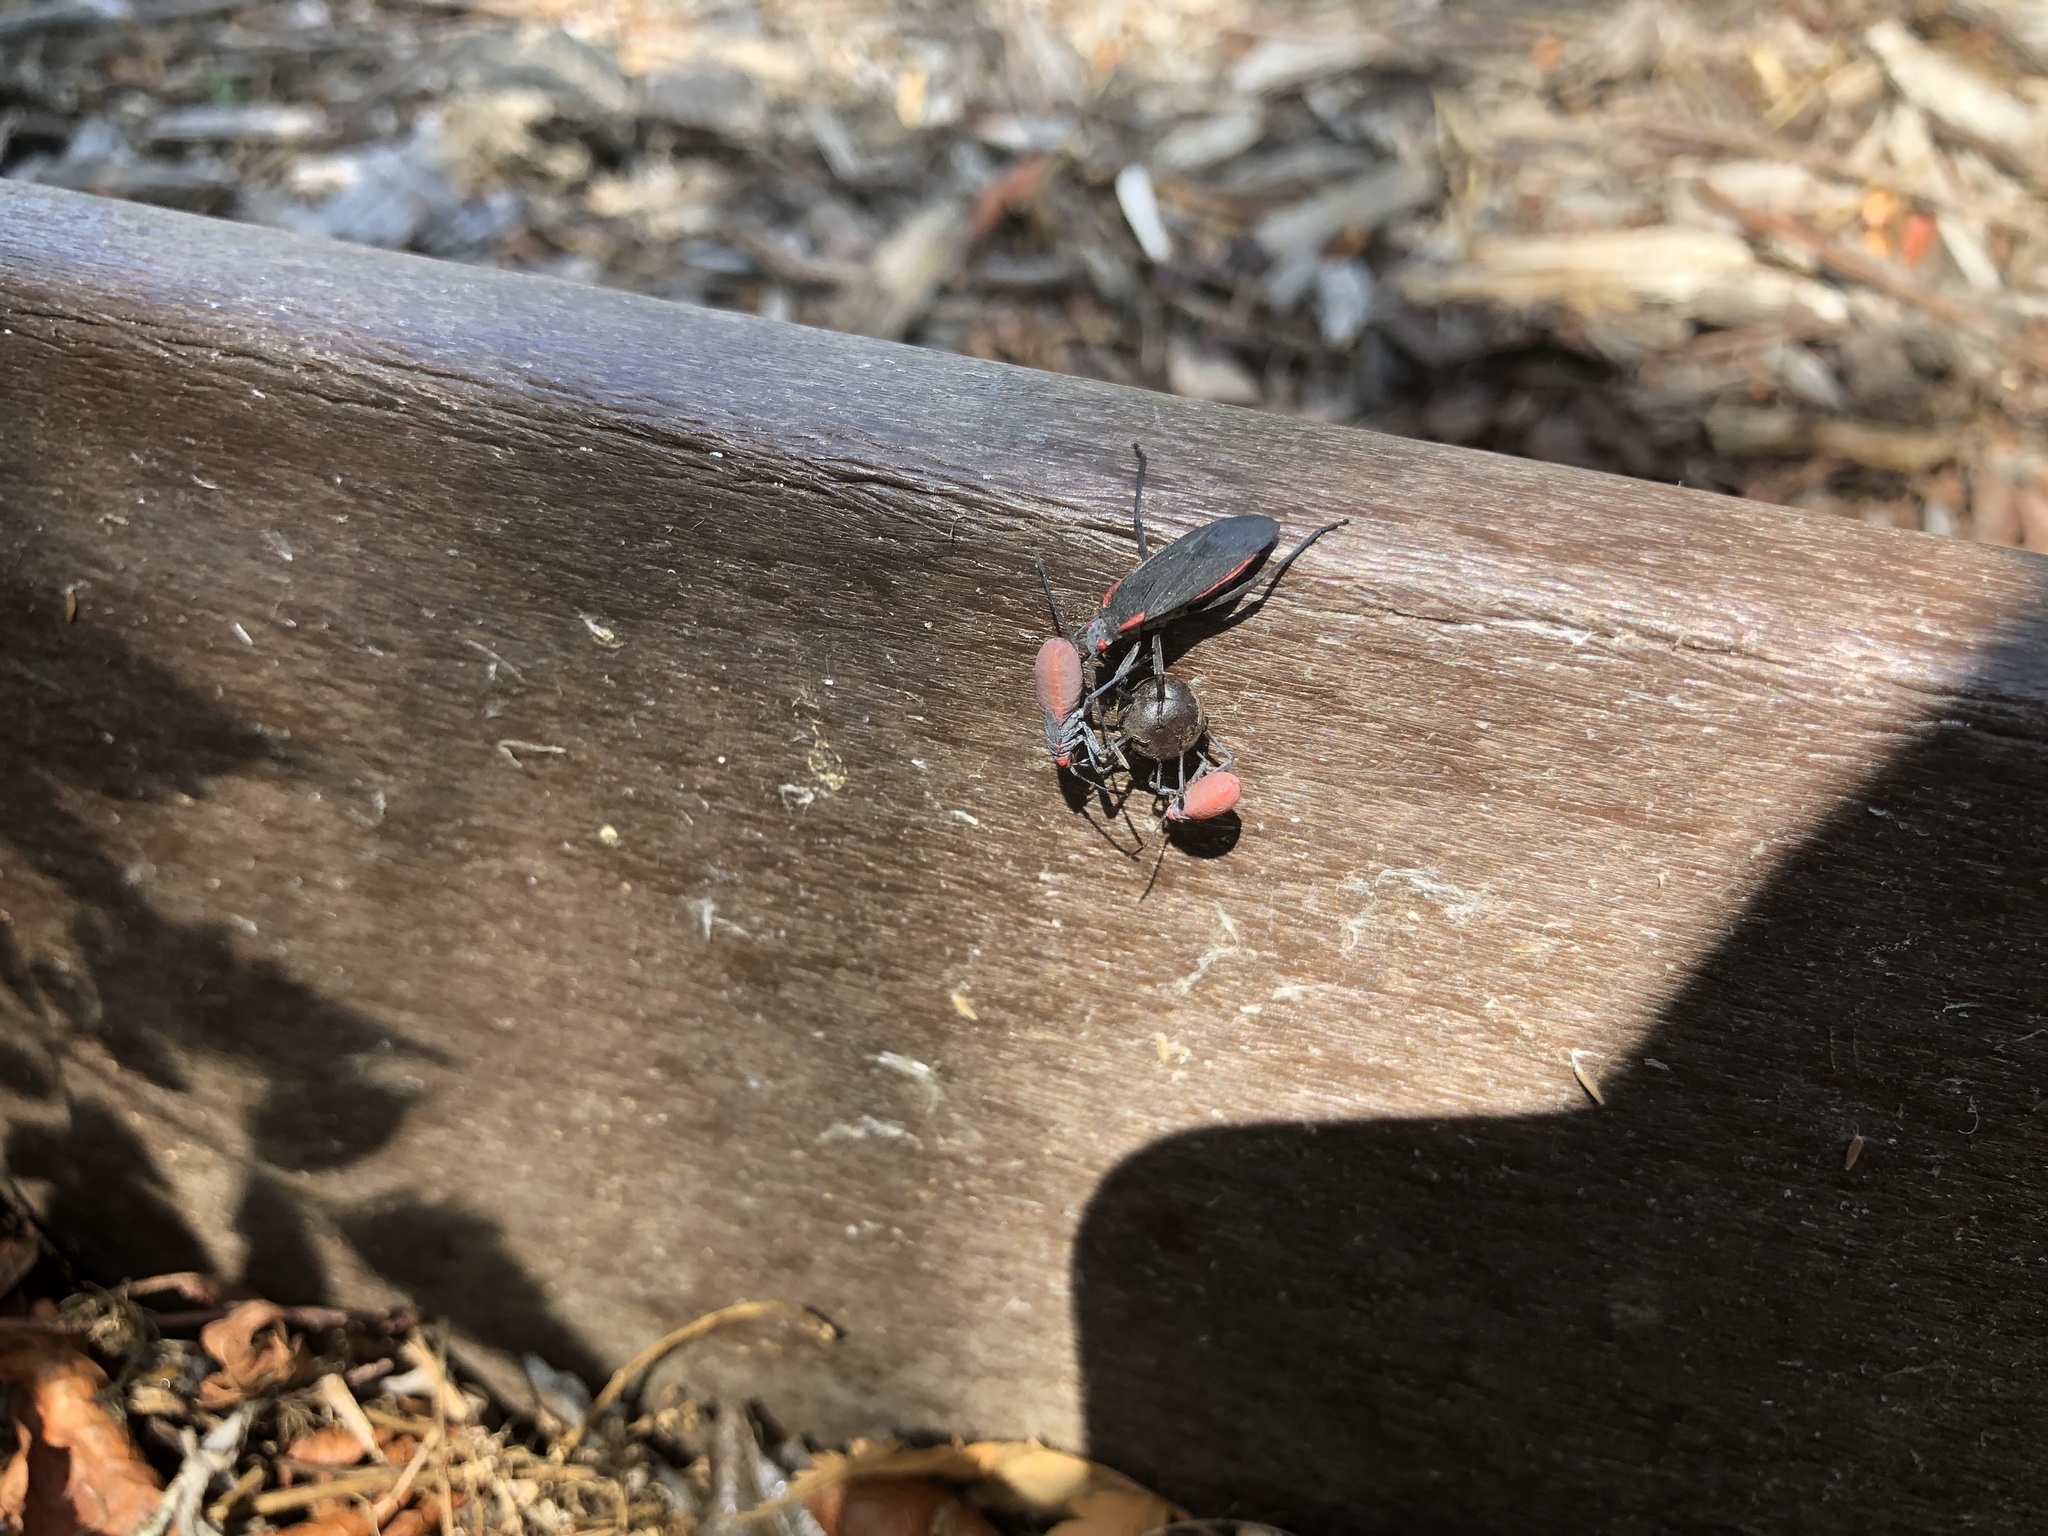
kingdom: Animalia
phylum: Arthropoda
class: Insecta
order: Hemiptera
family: Rhopalidae
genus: Jadera
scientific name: Jadera haematoloma
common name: Red-shouldered bug
